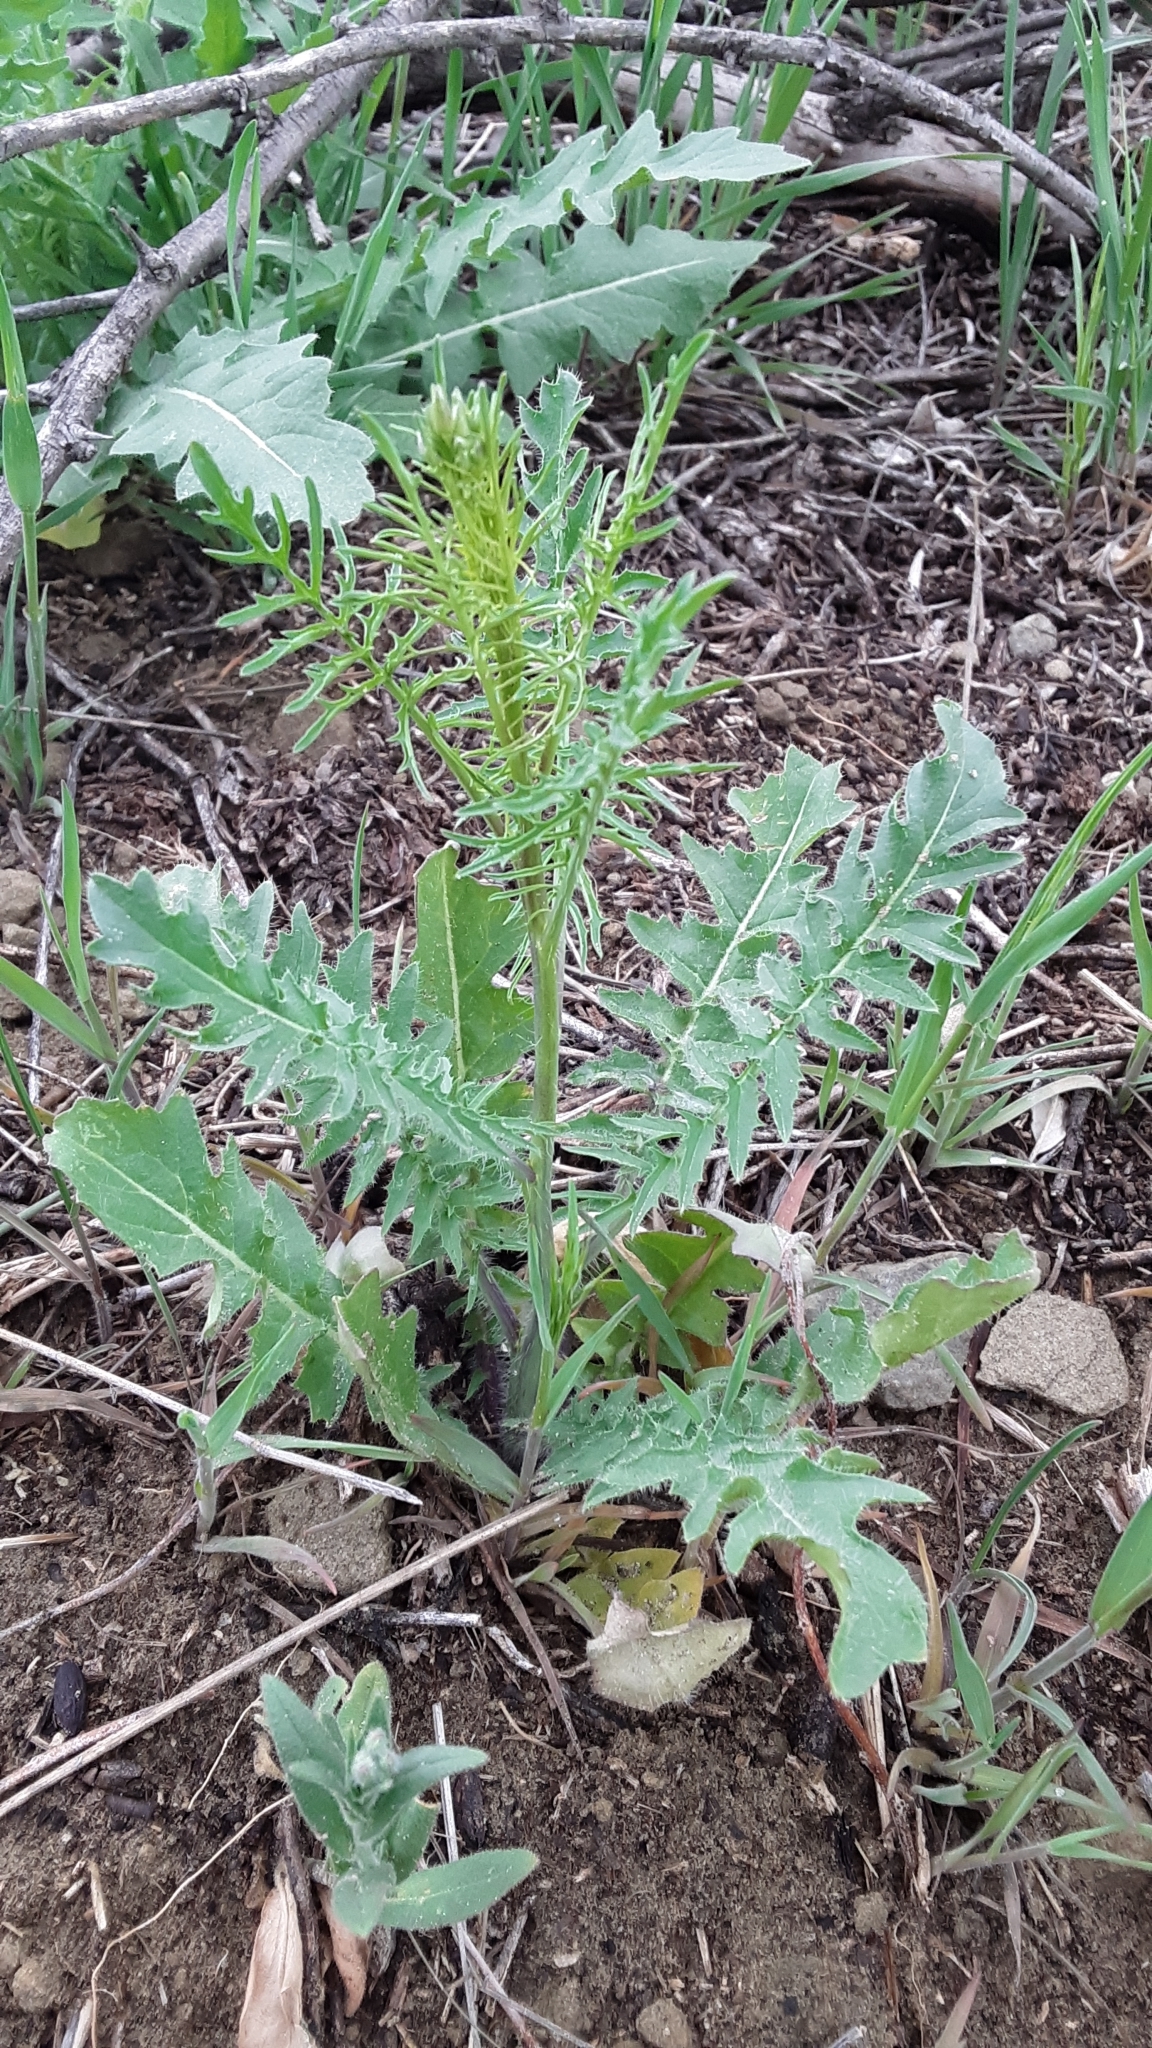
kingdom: Plantae
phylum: Tracheophyta
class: Magnoliopsida
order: Brassicales
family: Brassicaceae
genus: Sisymbrium
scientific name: Sisymbrium altissimum
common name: Tall rocket
